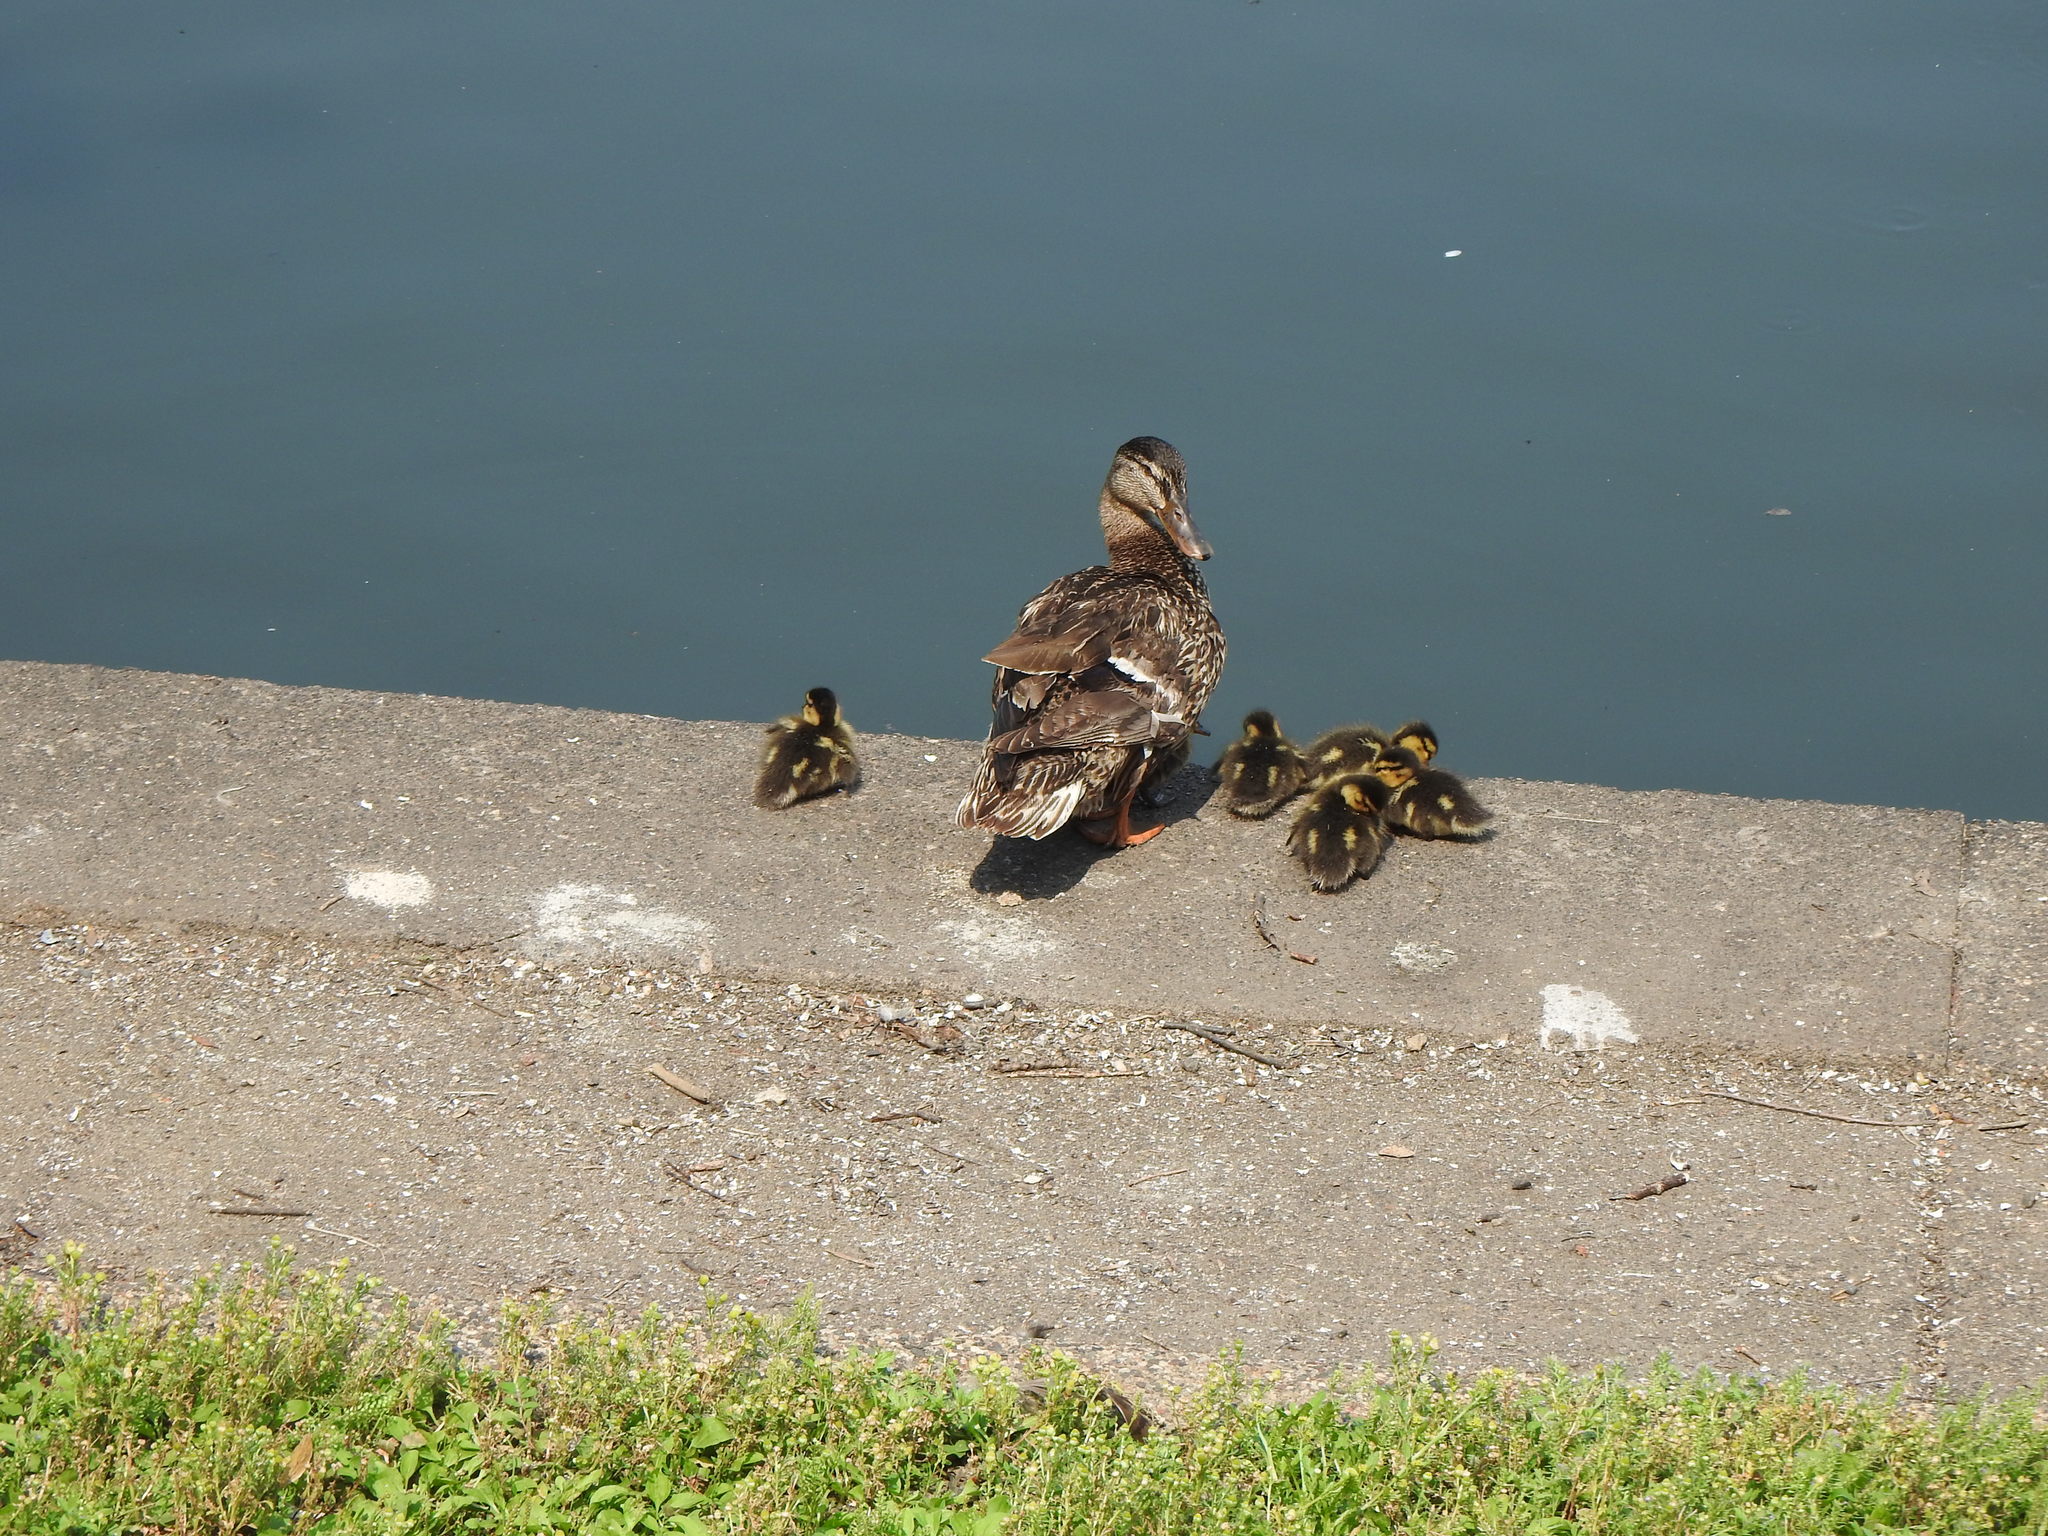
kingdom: Animalia
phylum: Chordata
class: Aves
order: Anseriformes
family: Anatidae
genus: Anas
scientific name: Anas platyrhynchos
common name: Mallard
